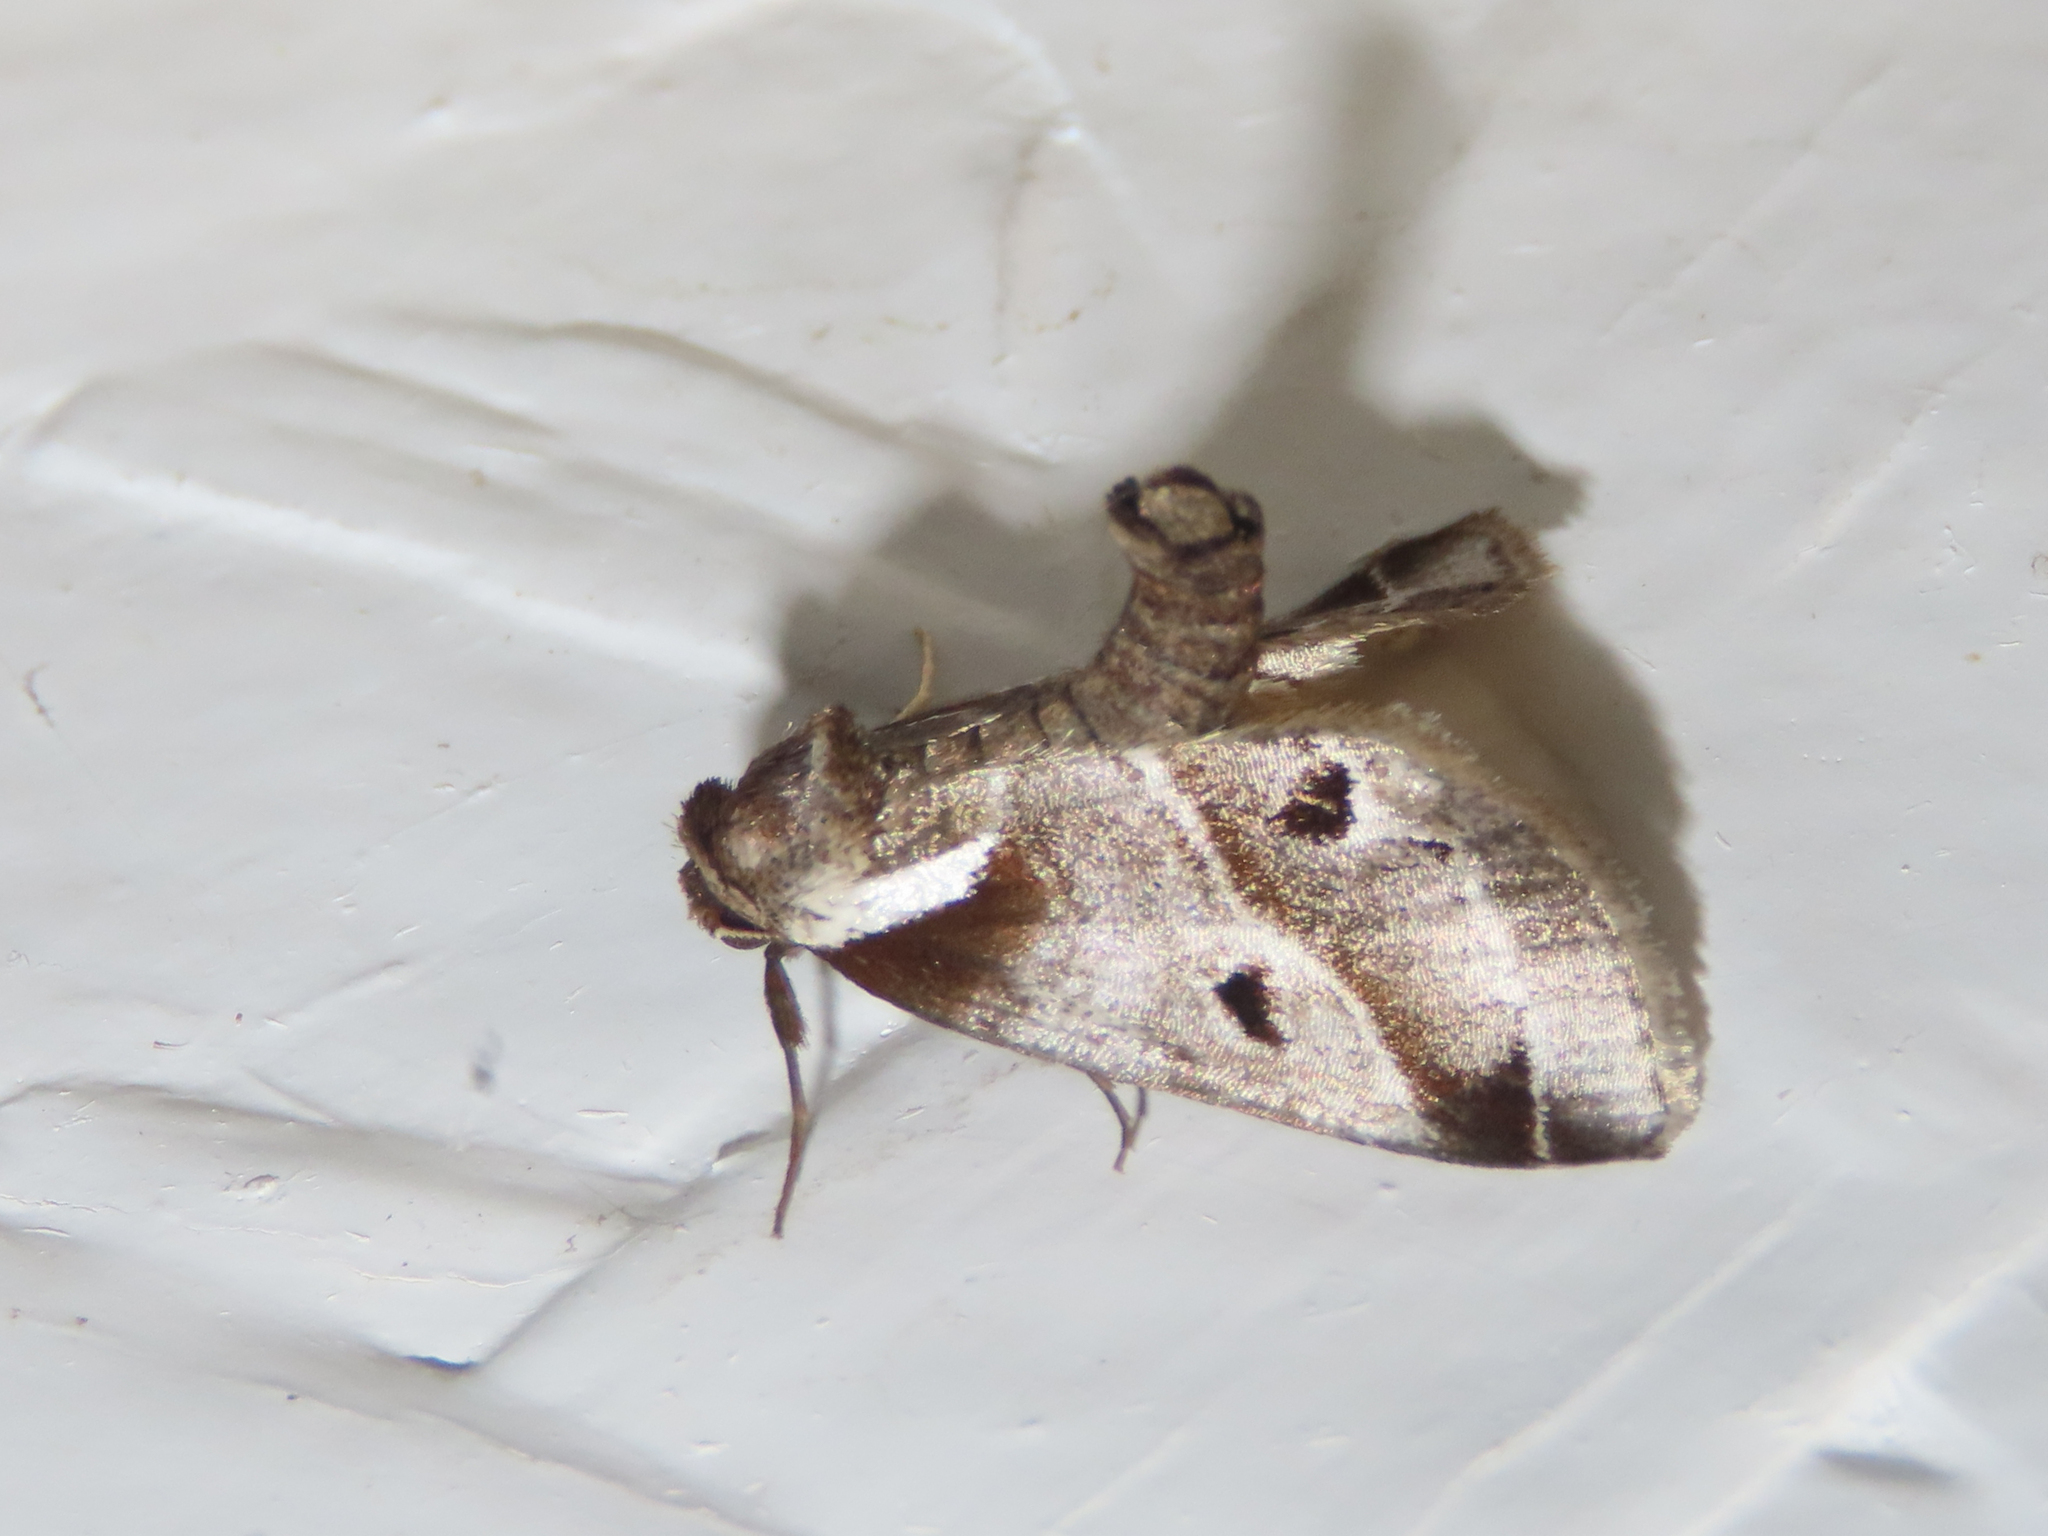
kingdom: Animalia
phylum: Arthropoda
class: Insecta
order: Lepidoptera
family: Nolidae
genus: Baileya
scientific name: Baileya doubledayi
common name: Doubleday's baileya moth
